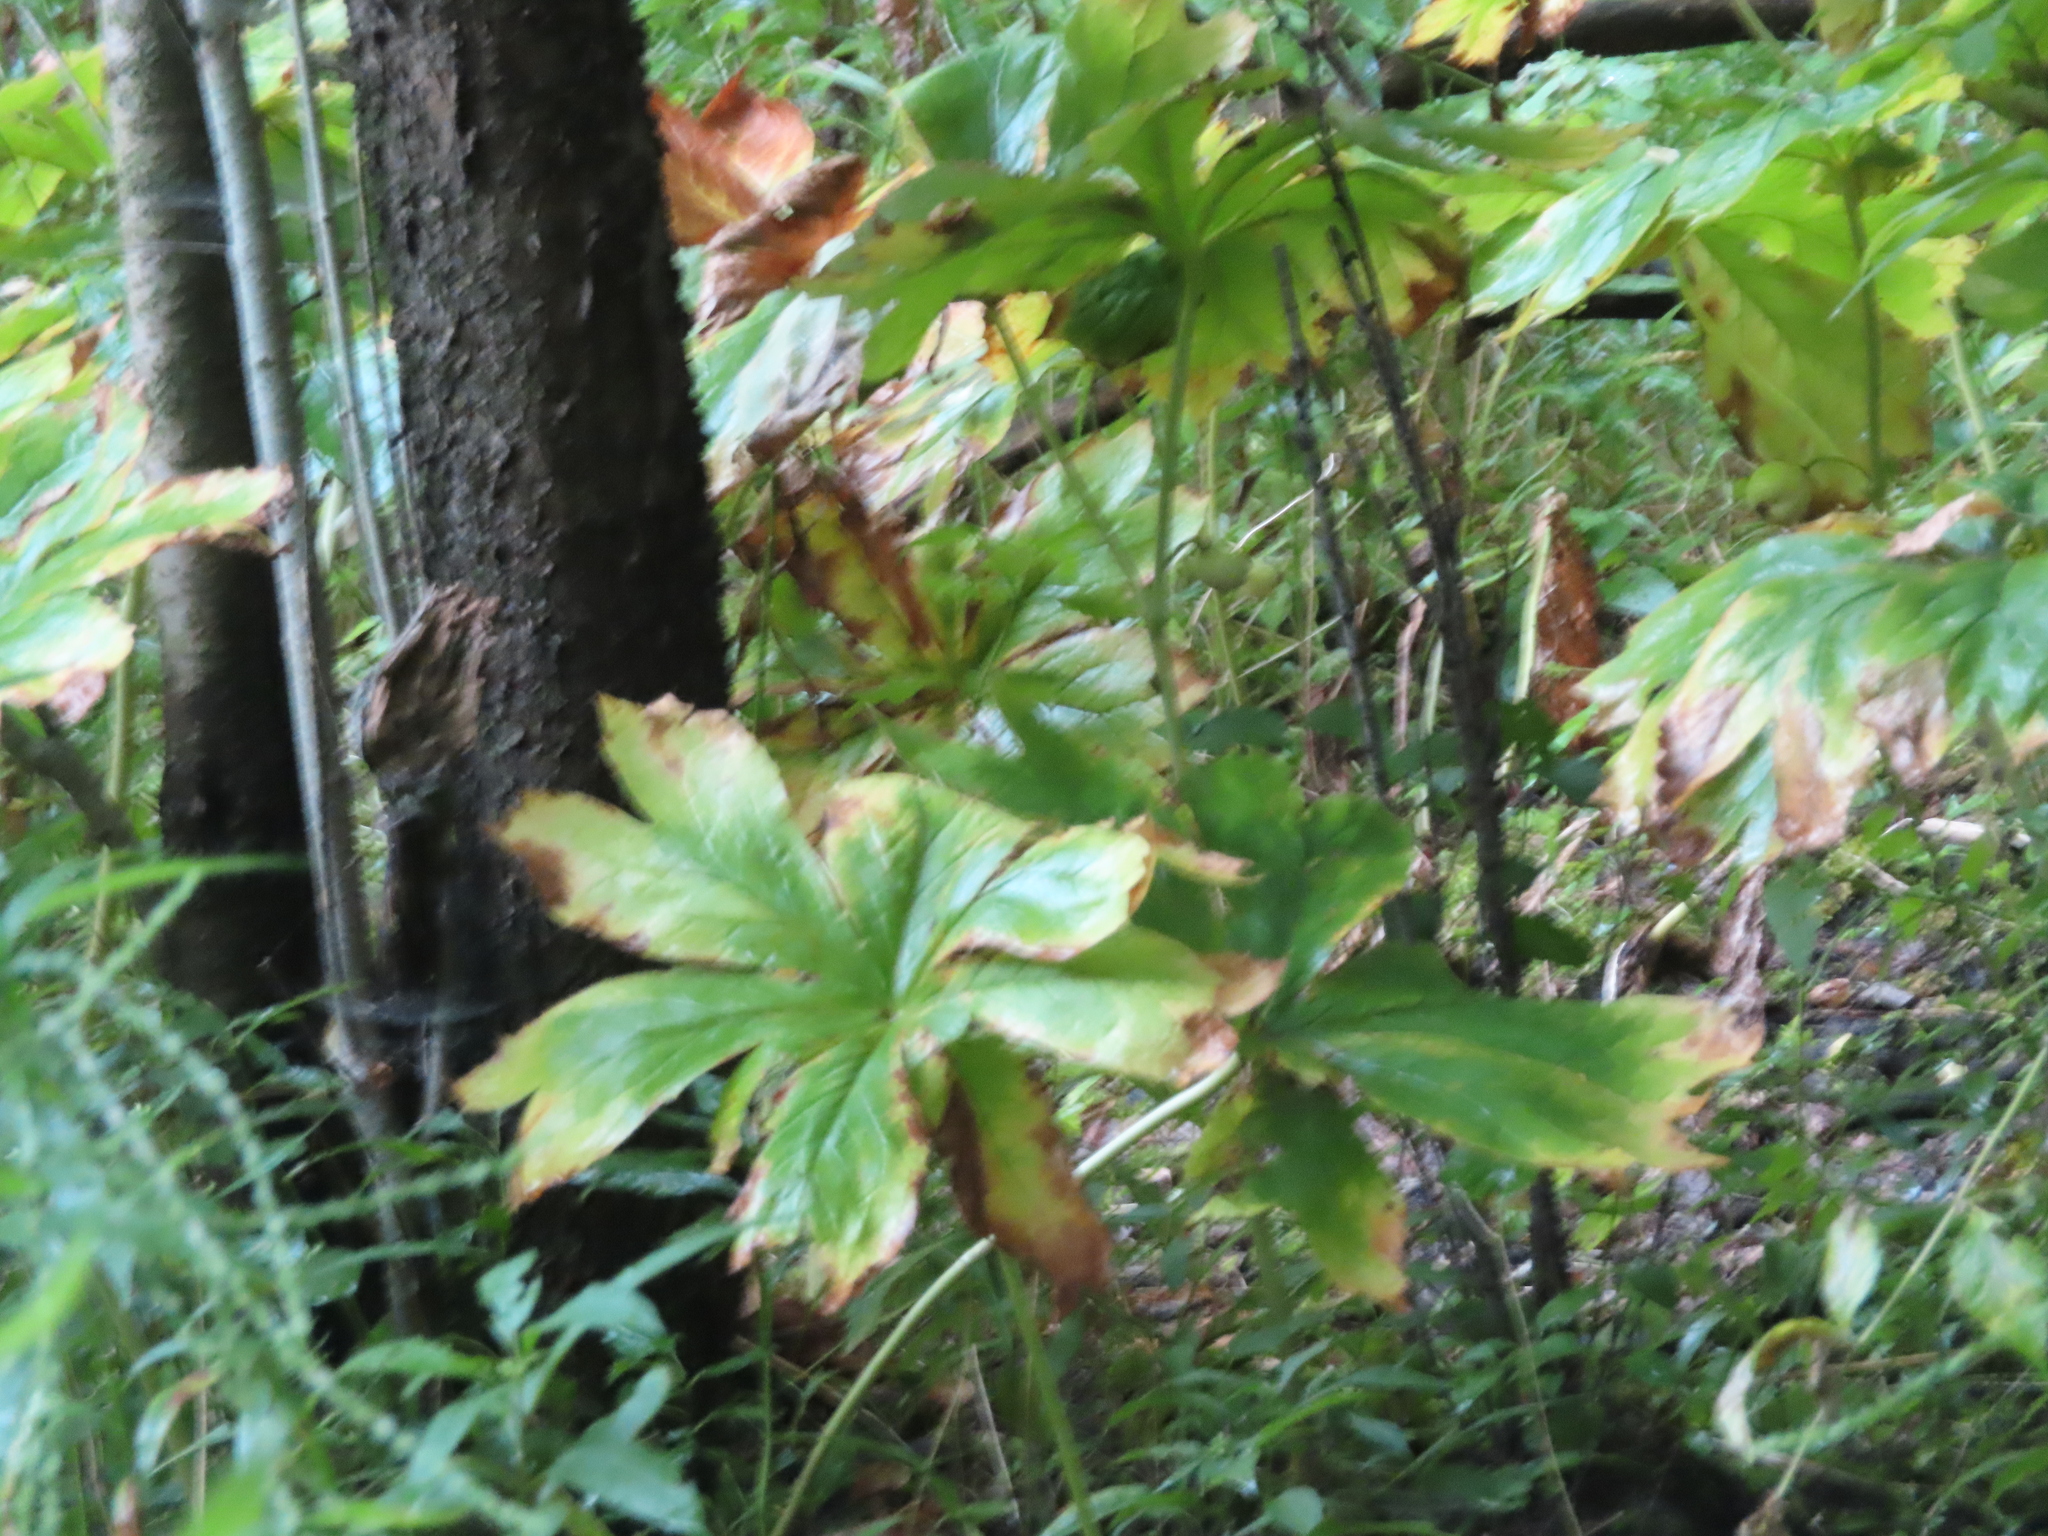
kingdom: Plantae
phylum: Tracheophyta
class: Magnoliopsida
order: Ranunculales
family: Berberidaceae
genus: Podophyllum
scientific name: Podophyllum peltatum
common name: Wild mandrake
